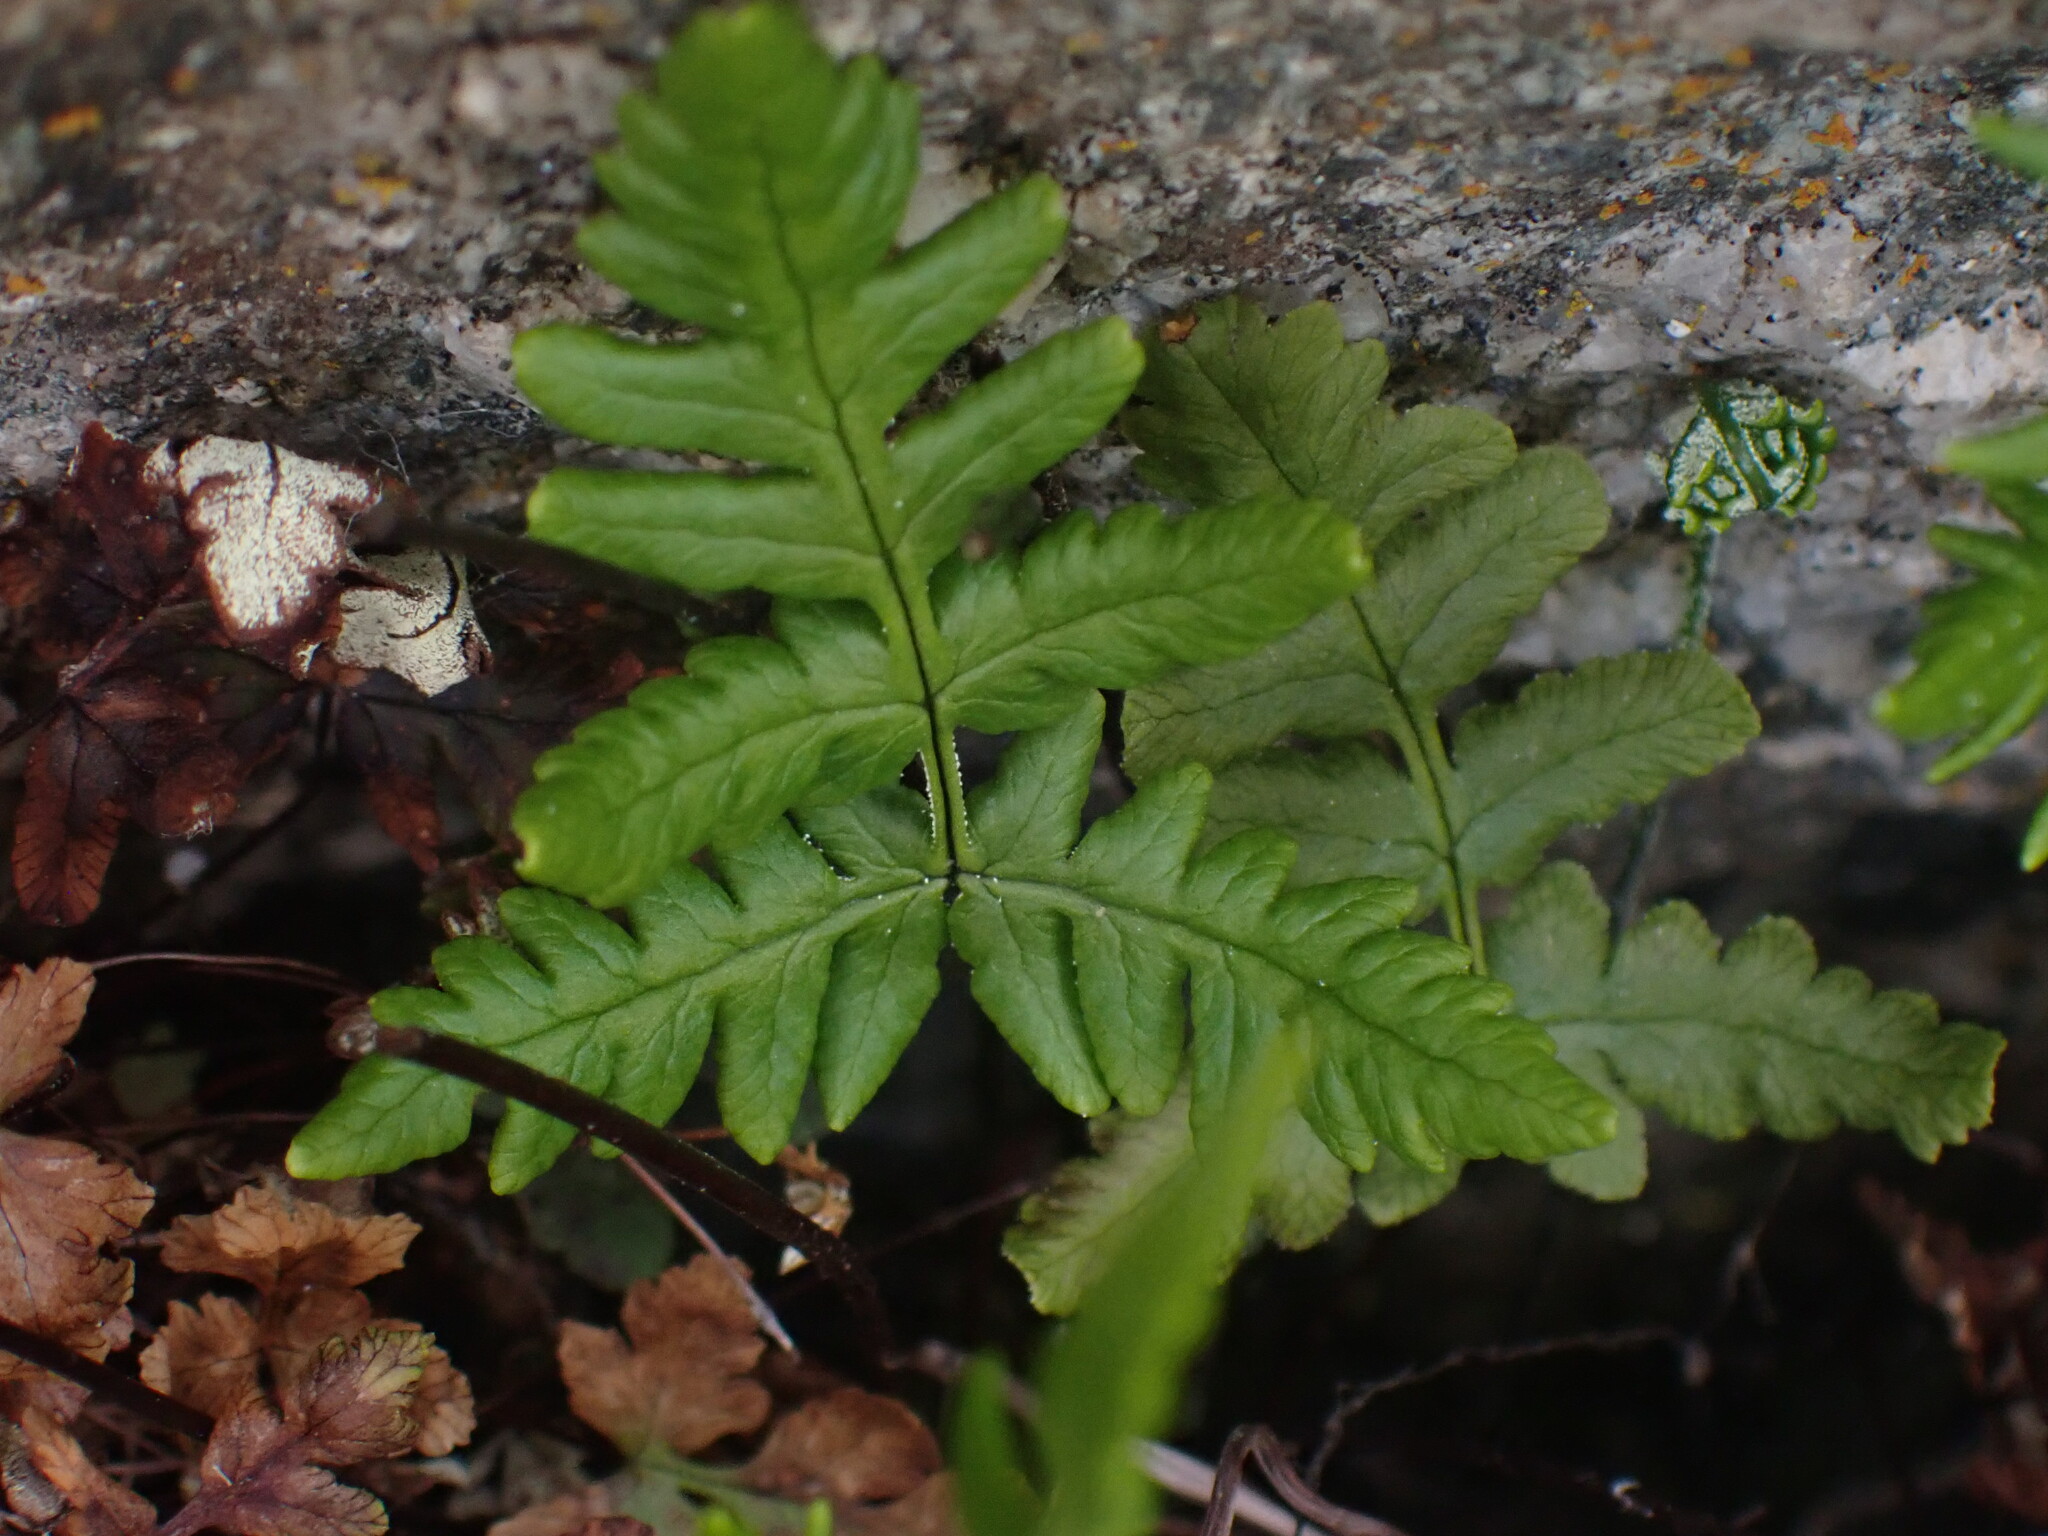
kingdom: Plantae
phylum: Tracheophyta
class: Polypodiopsida
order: Polypodiales
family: Pteridaceae
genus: Pentagramma
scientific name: Pentagramma triangularis
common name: Gold fern
